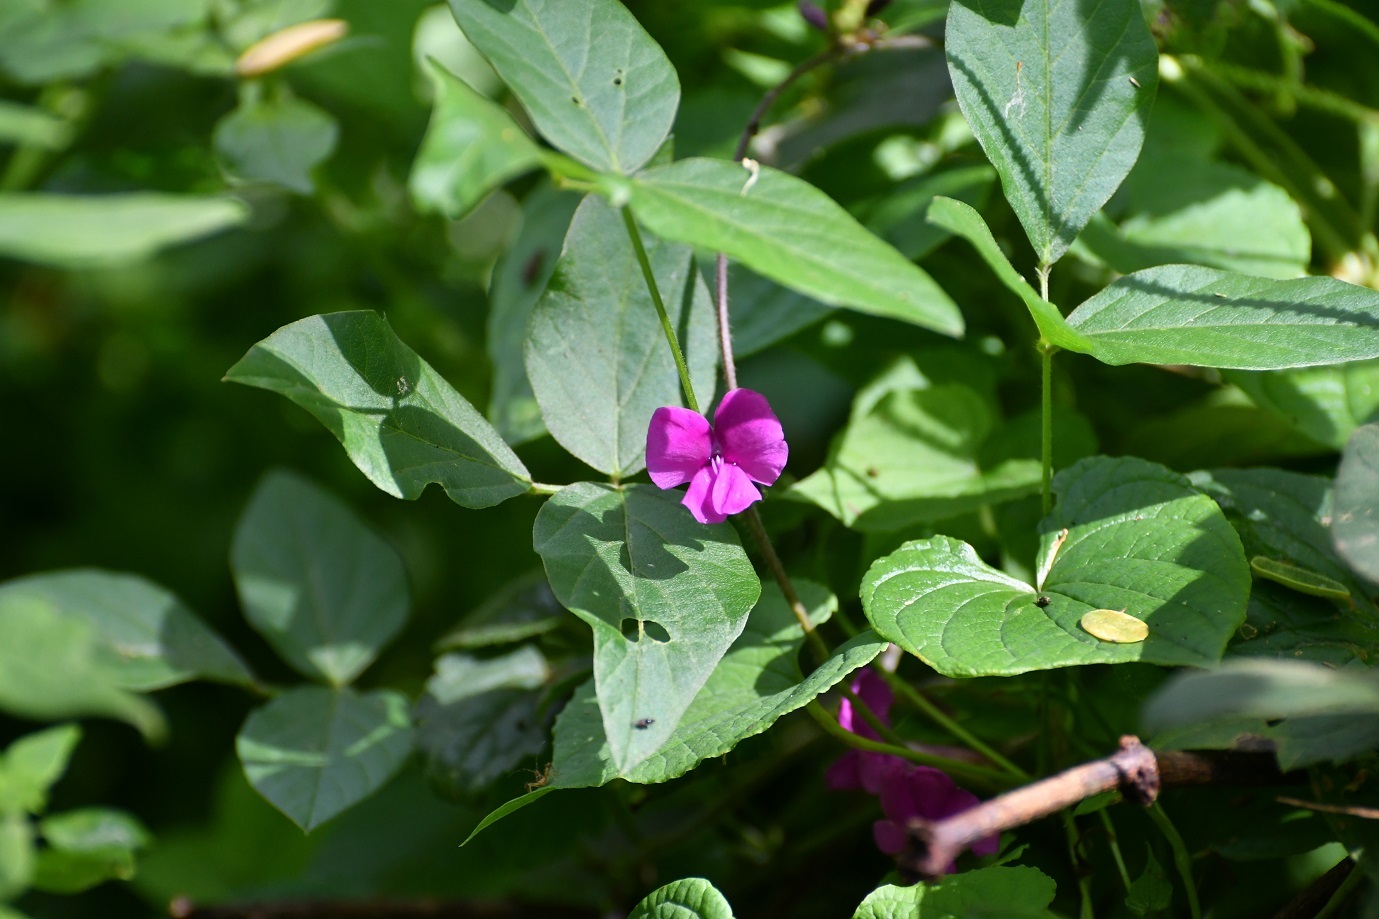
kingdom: Plantae
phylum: Tracheophyta
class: Magnoliopsida
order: Fabales
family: Fabaceae
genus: Cologania
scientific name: Cologania broussonetii
